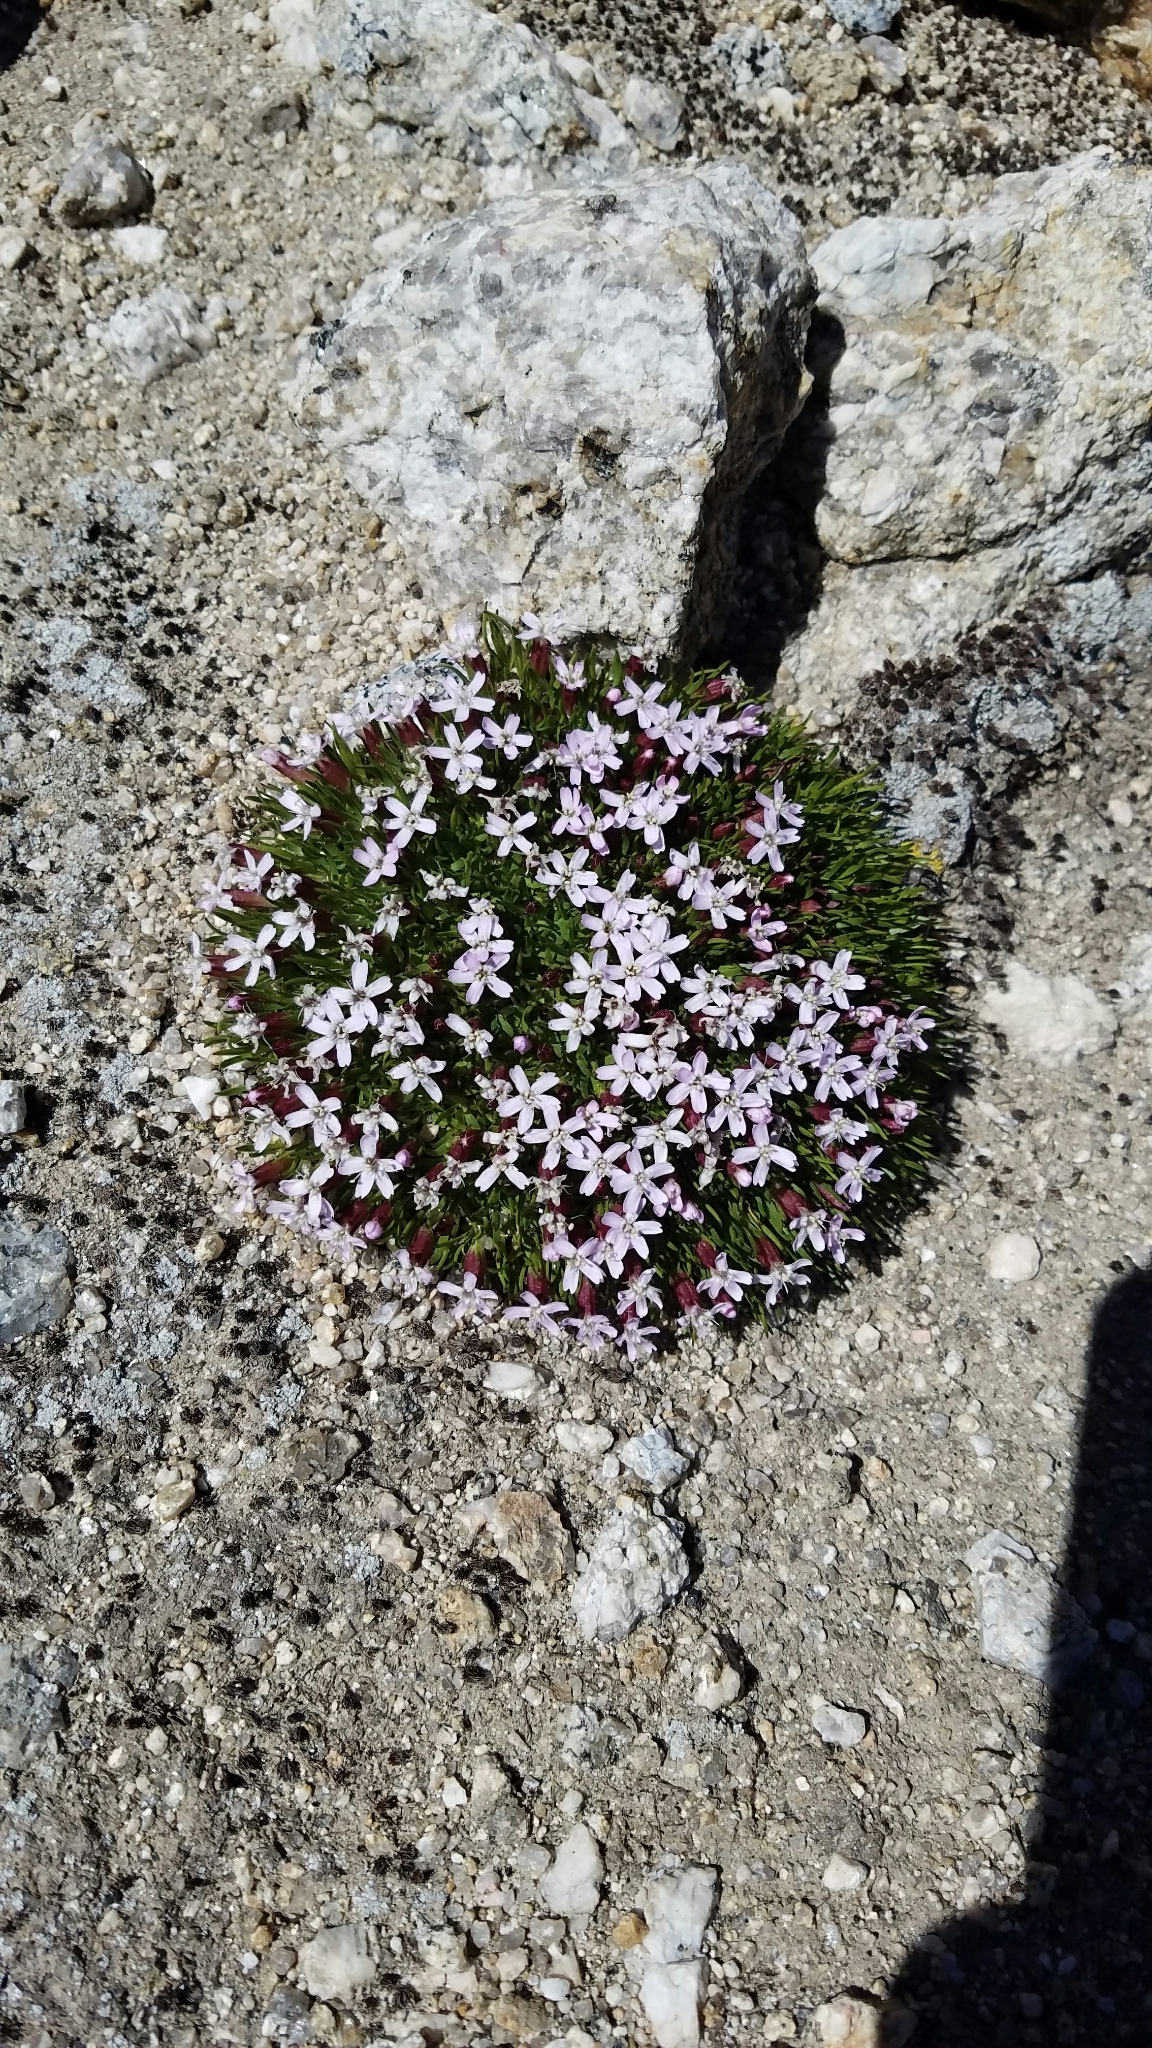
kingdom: Plantae
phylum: Tracheophyta
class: Magnoliopsida
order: Caryophyllales
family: Caryophyllaceae
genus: Silene
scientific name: Silene acaulis
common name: Moss campion
